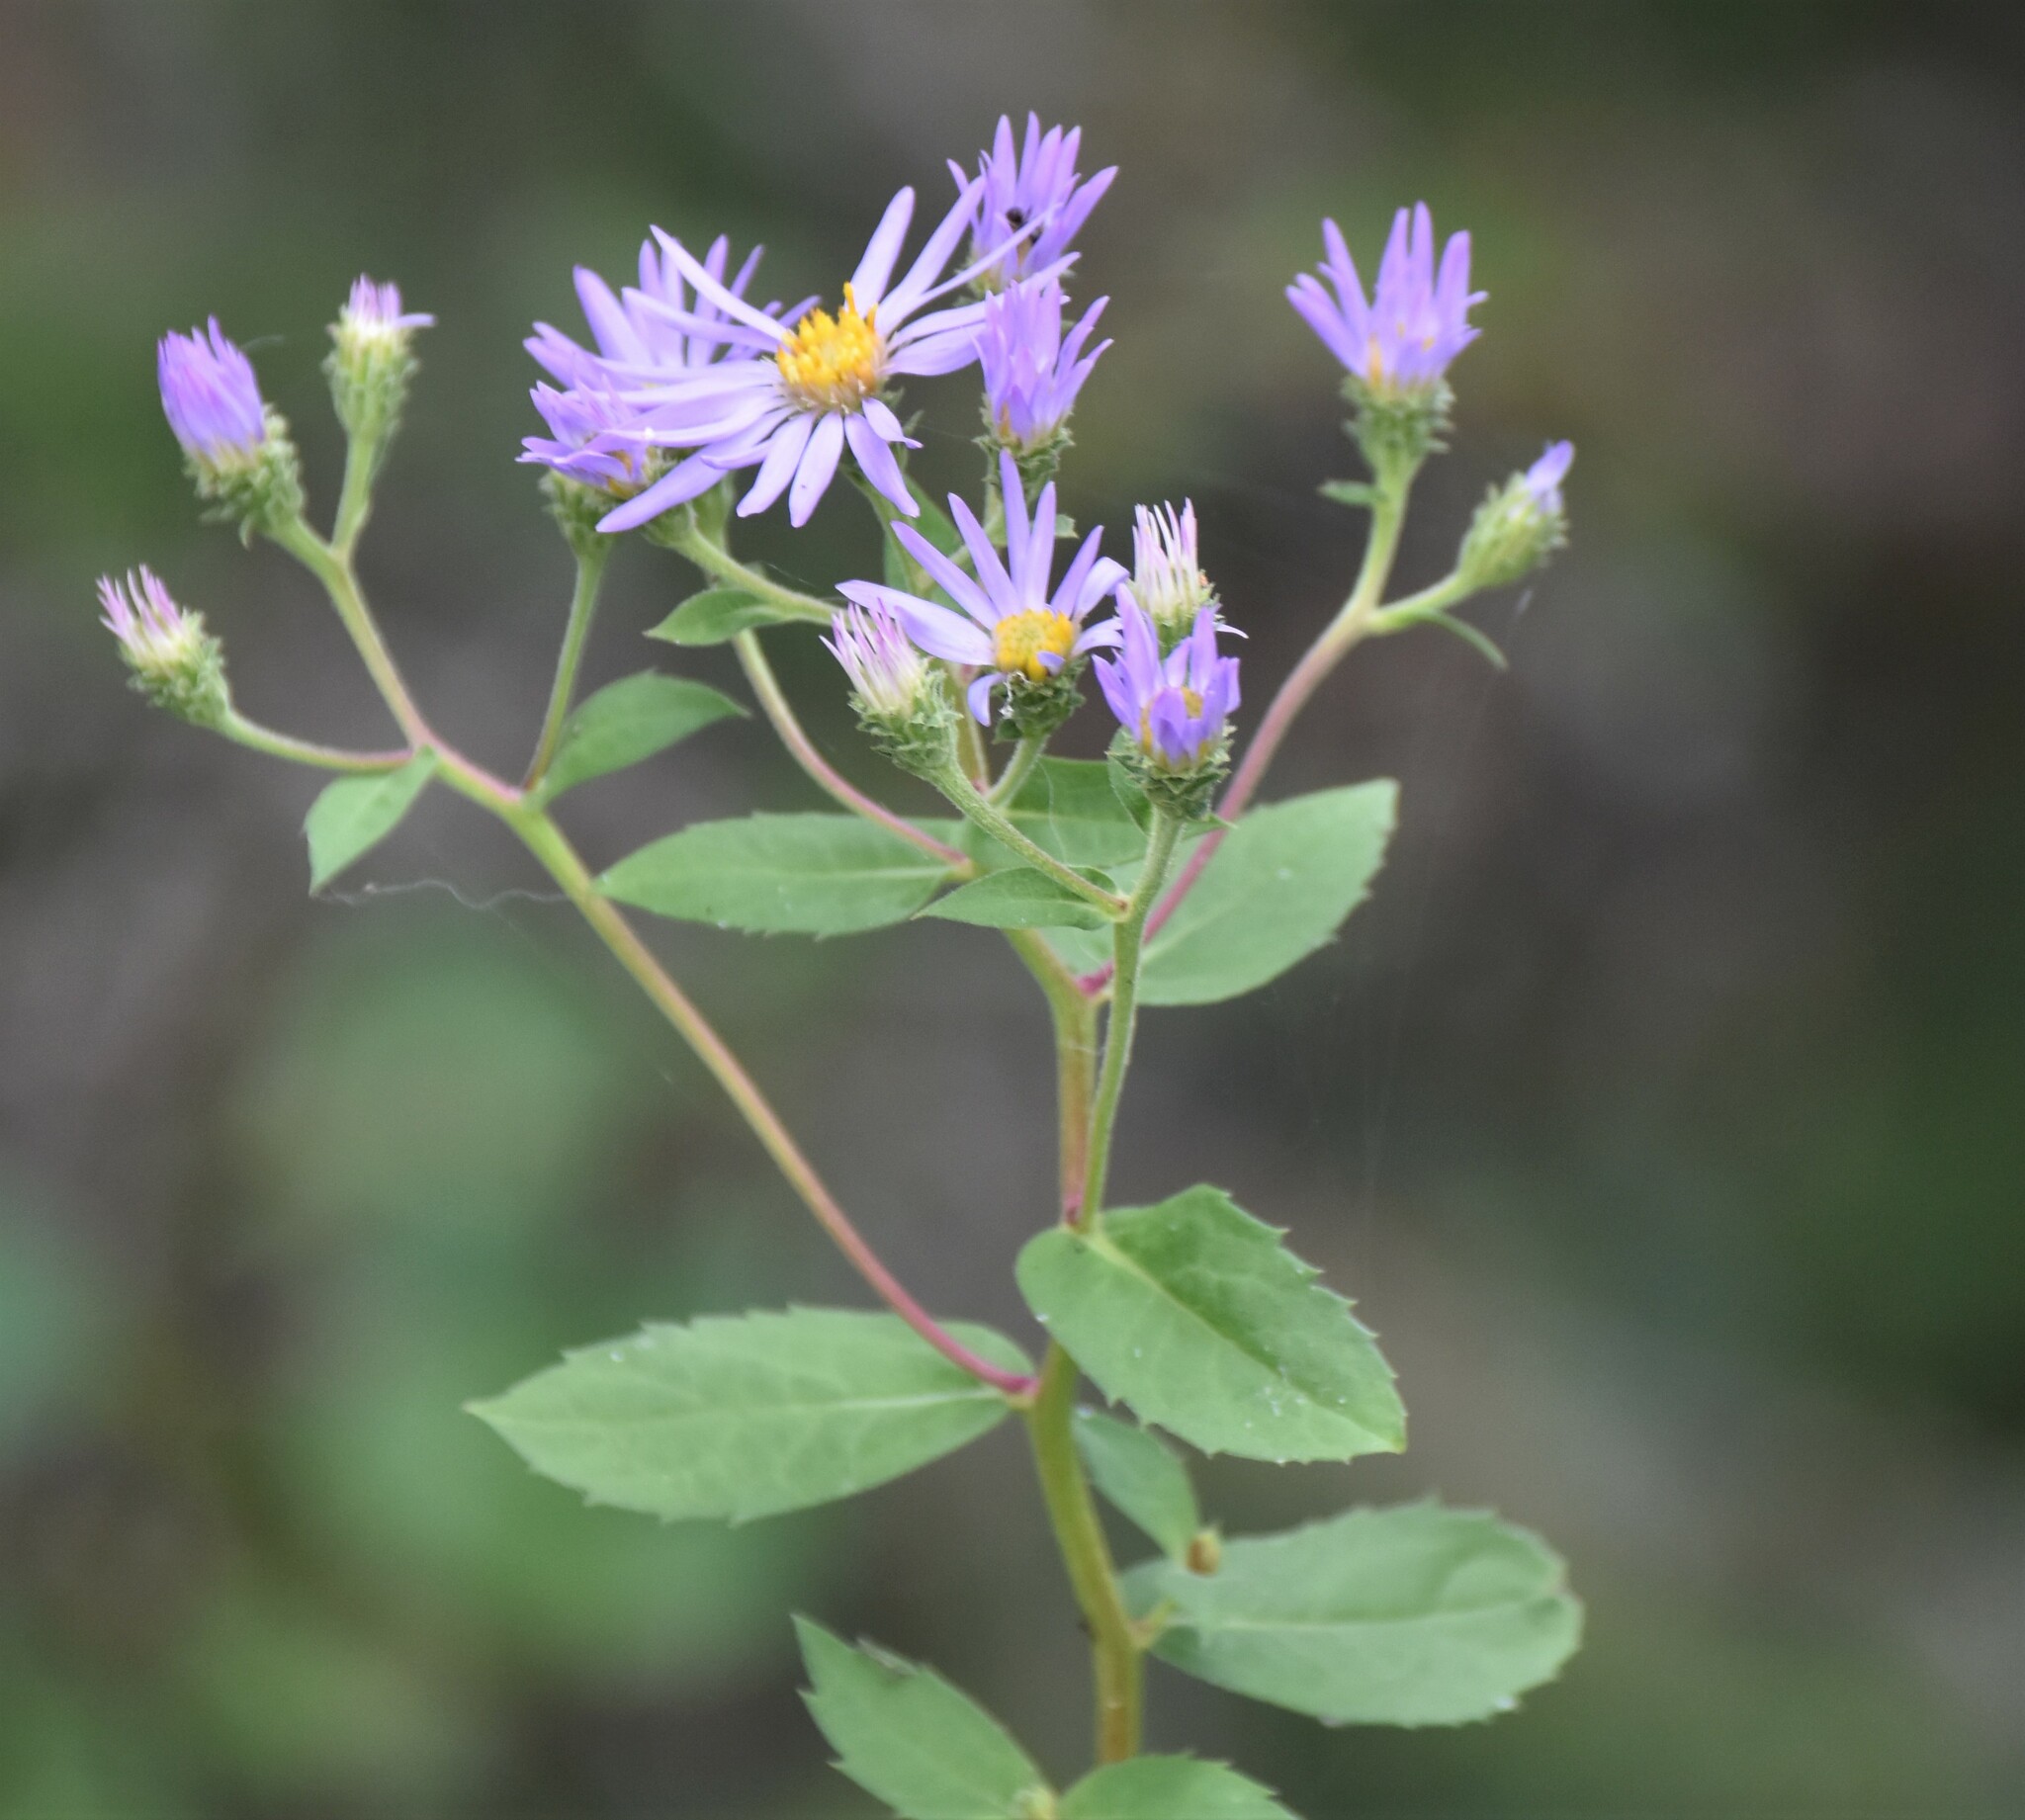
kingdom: Plantae
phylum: Tracheophyta
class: Magnoliopsida
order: Asterales
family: Asteraceae
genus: Eurybia
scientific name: Eurybia conspicua
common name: Showy aster
